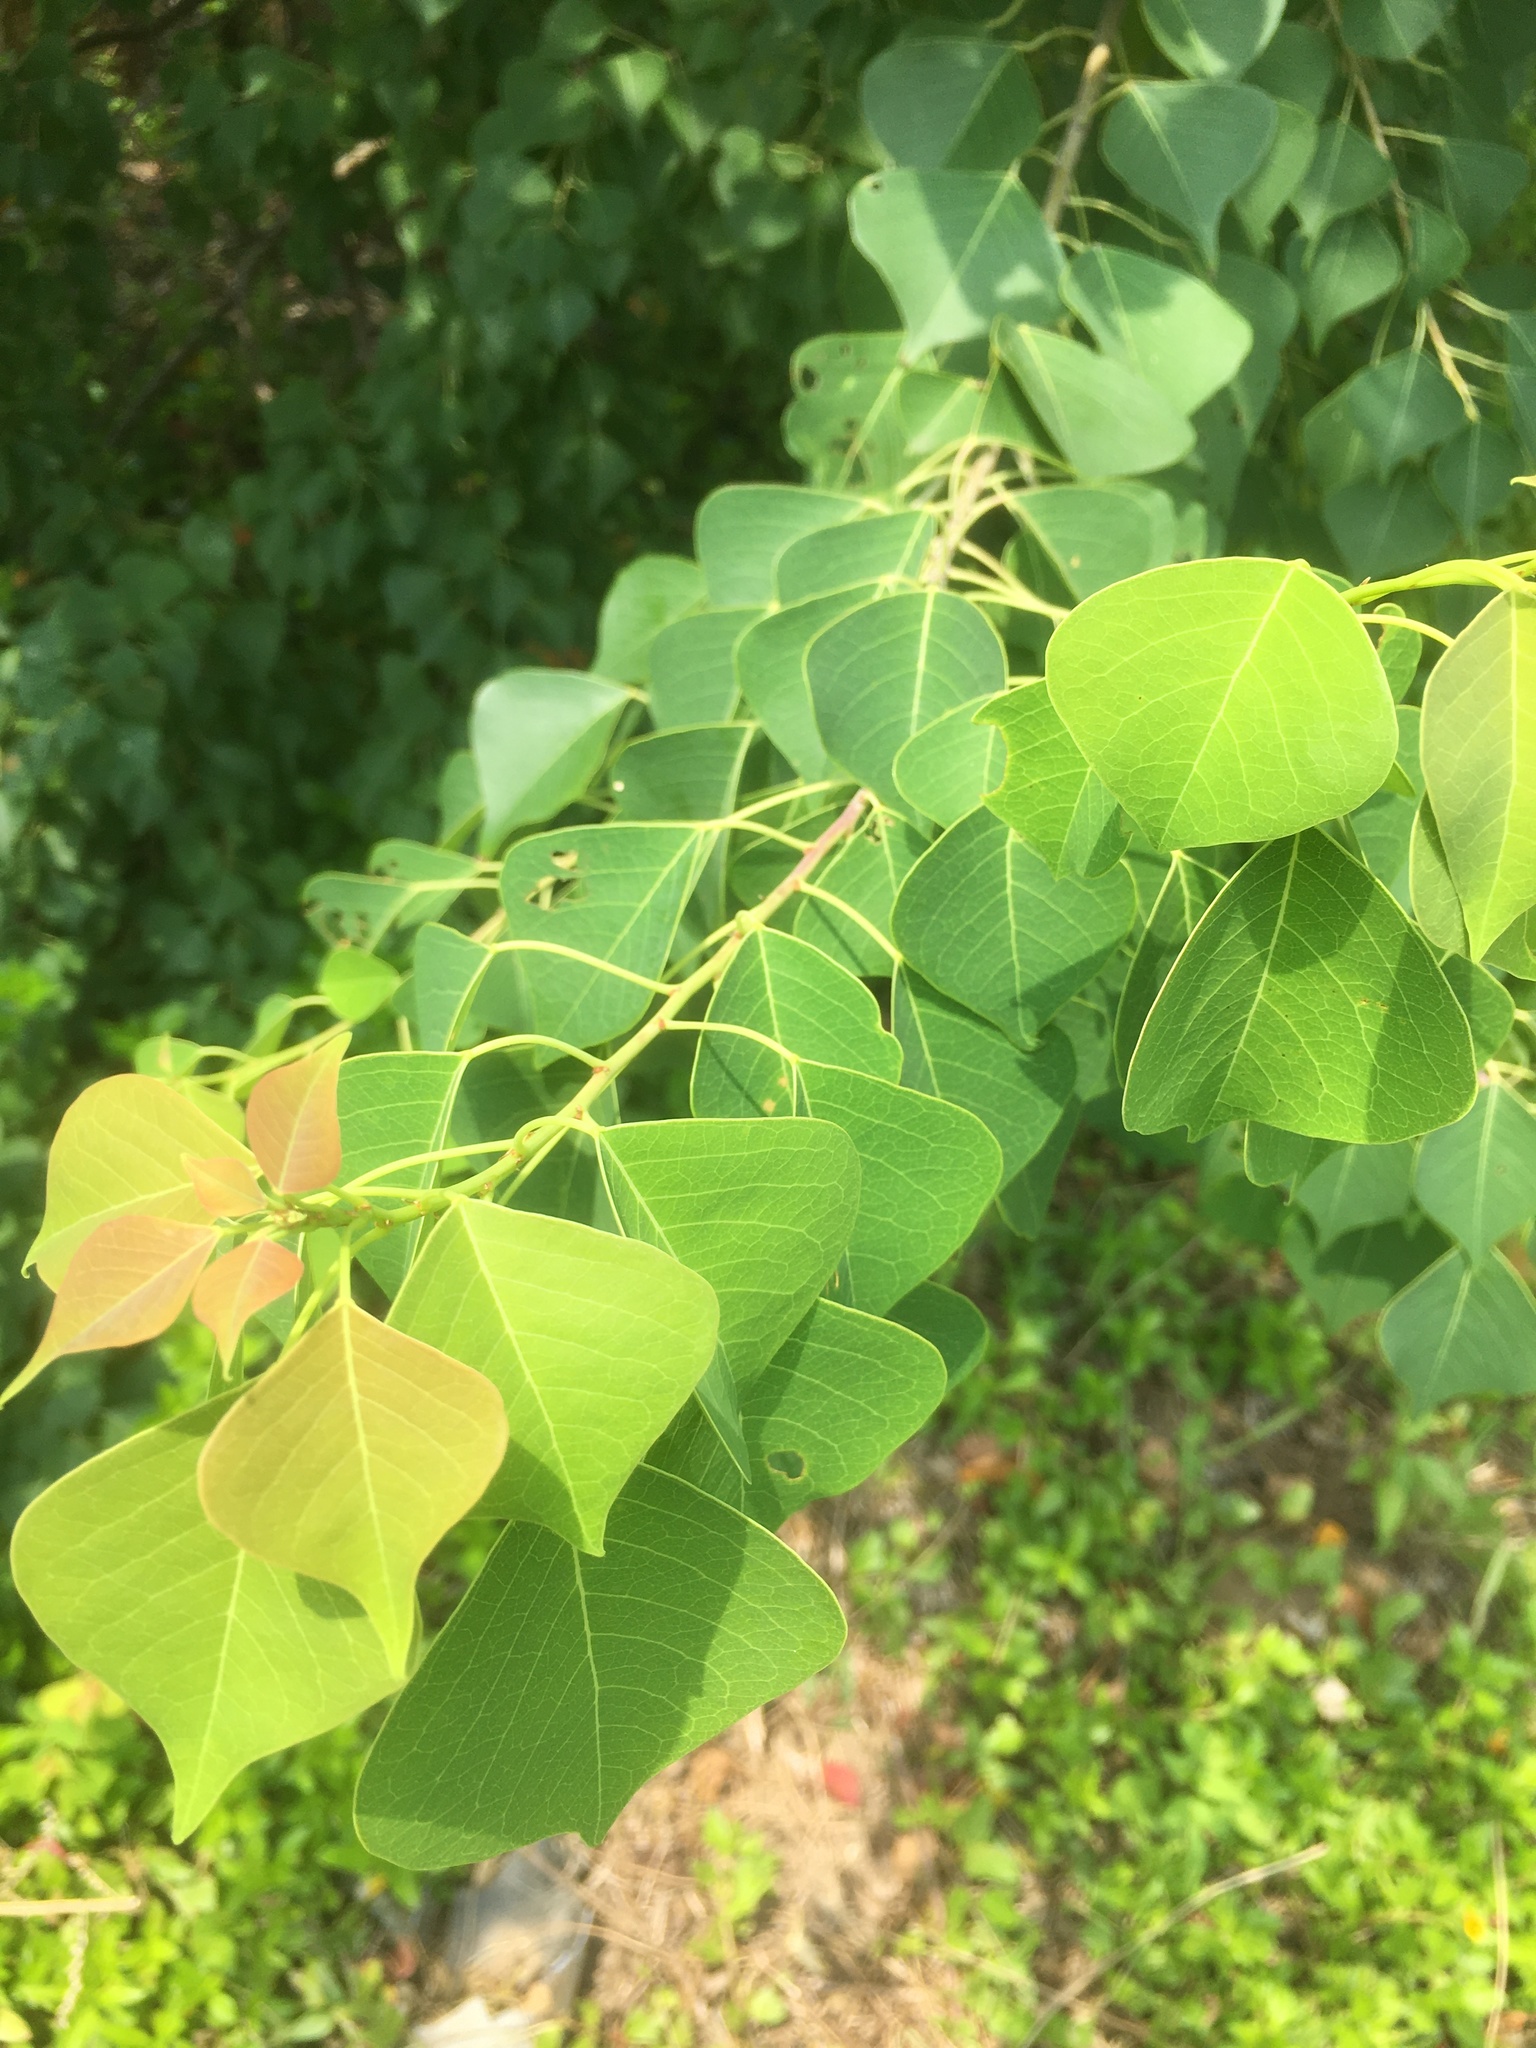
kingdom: Plantae
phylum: Tracheophyta
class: Magnoliopsida
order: Malpighiales
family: Euphorbiaceae
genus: Triadica
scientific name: Triadica sebifera
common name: Chinese tallow
